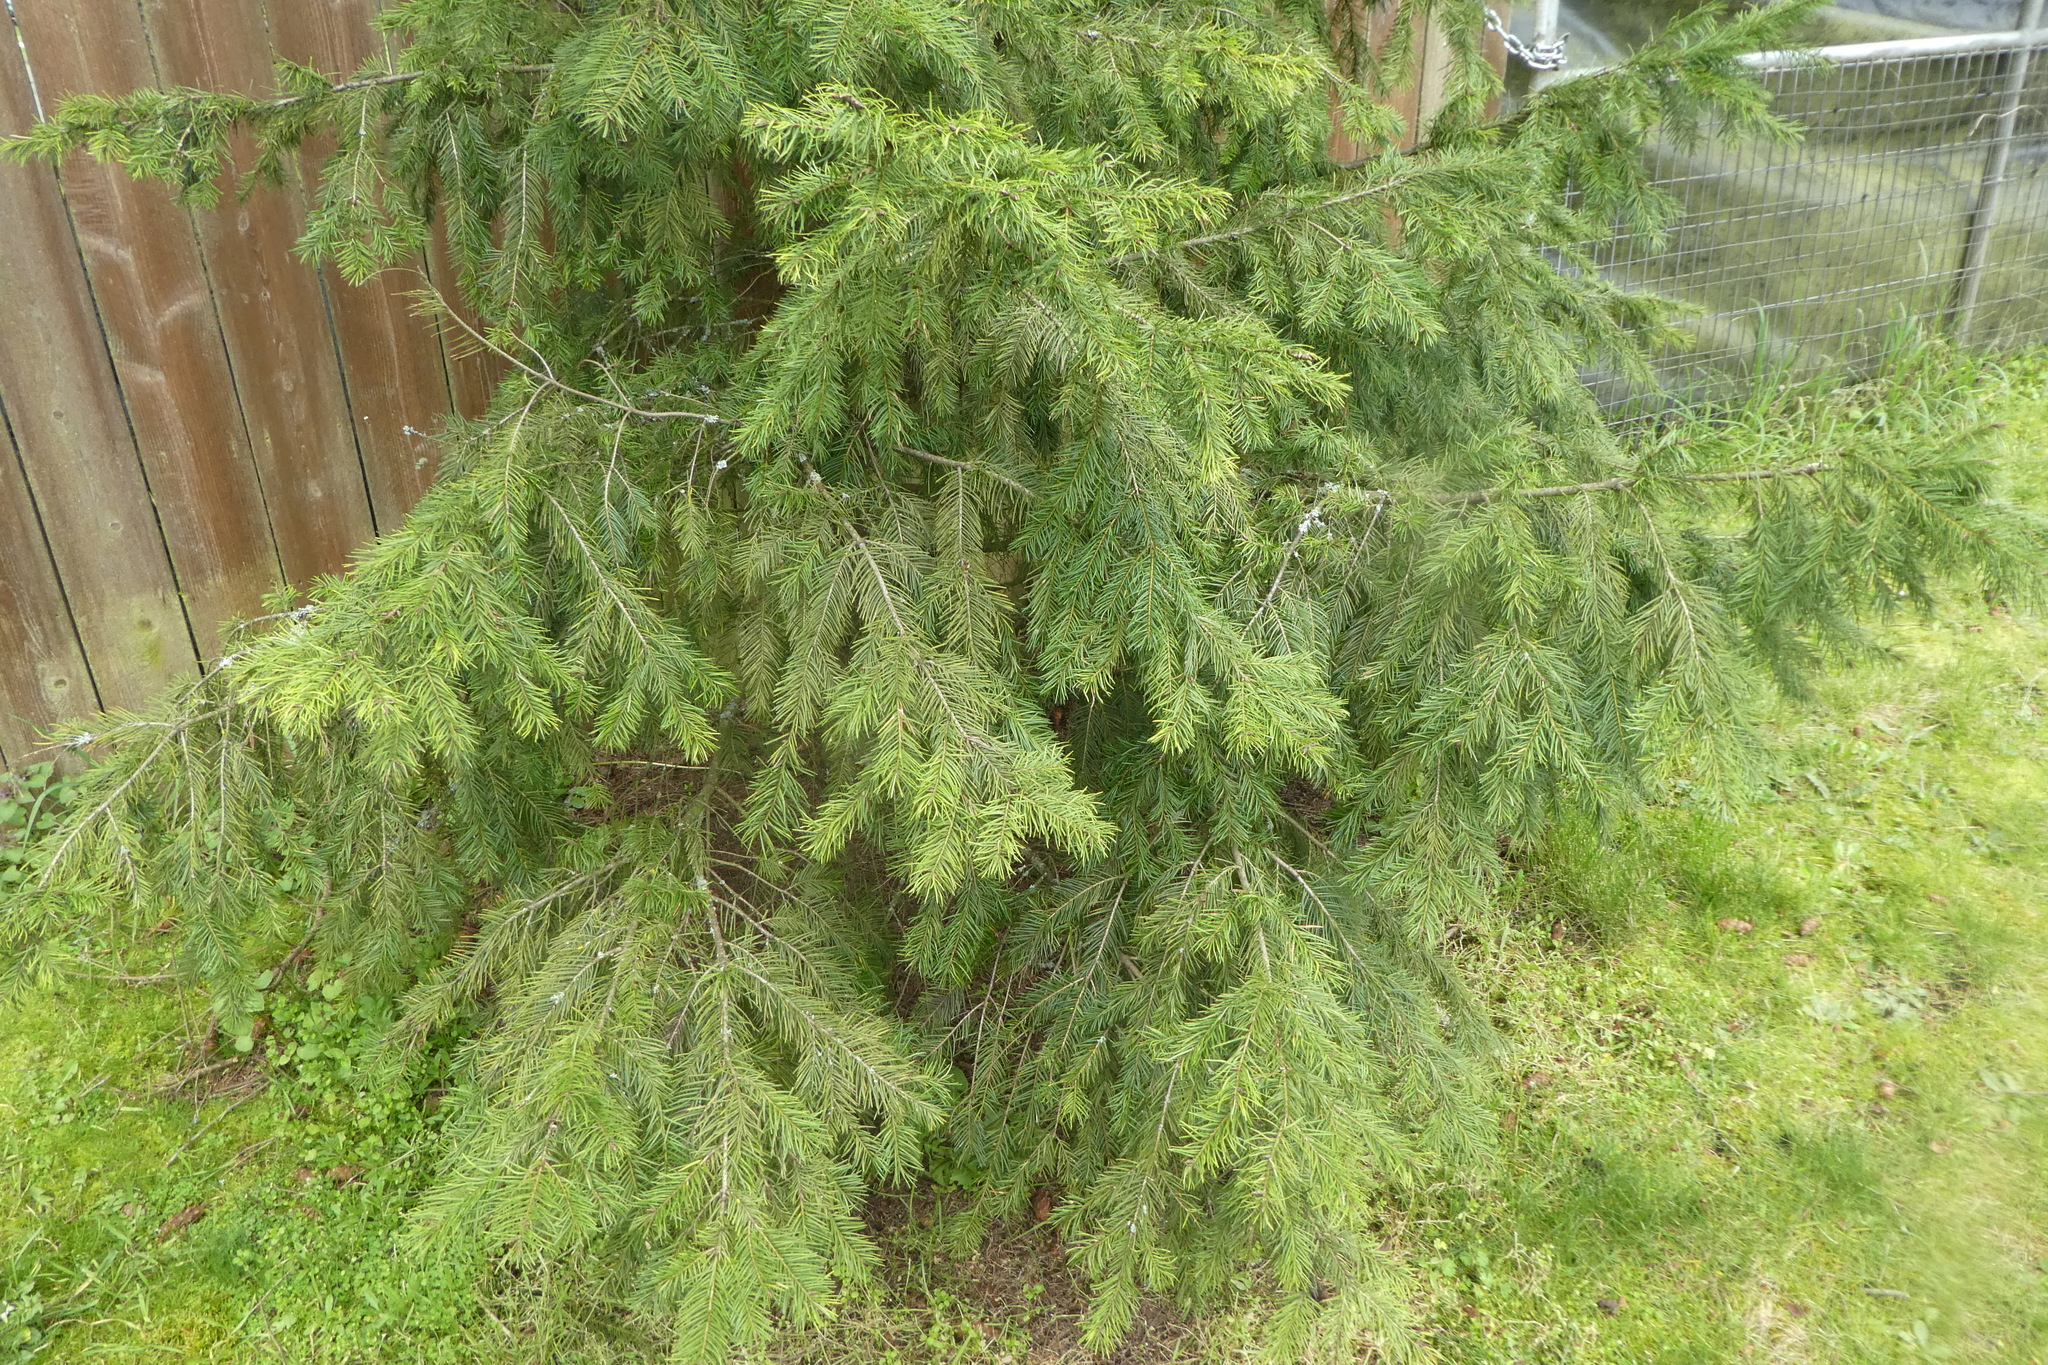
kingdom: Plantae
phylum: Tracheophyta
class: Pinopsida
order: Pinales
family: Pinaceae
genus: Pseudotsuga
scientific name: Pseudotsuga menziesii
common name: Douglas fir
